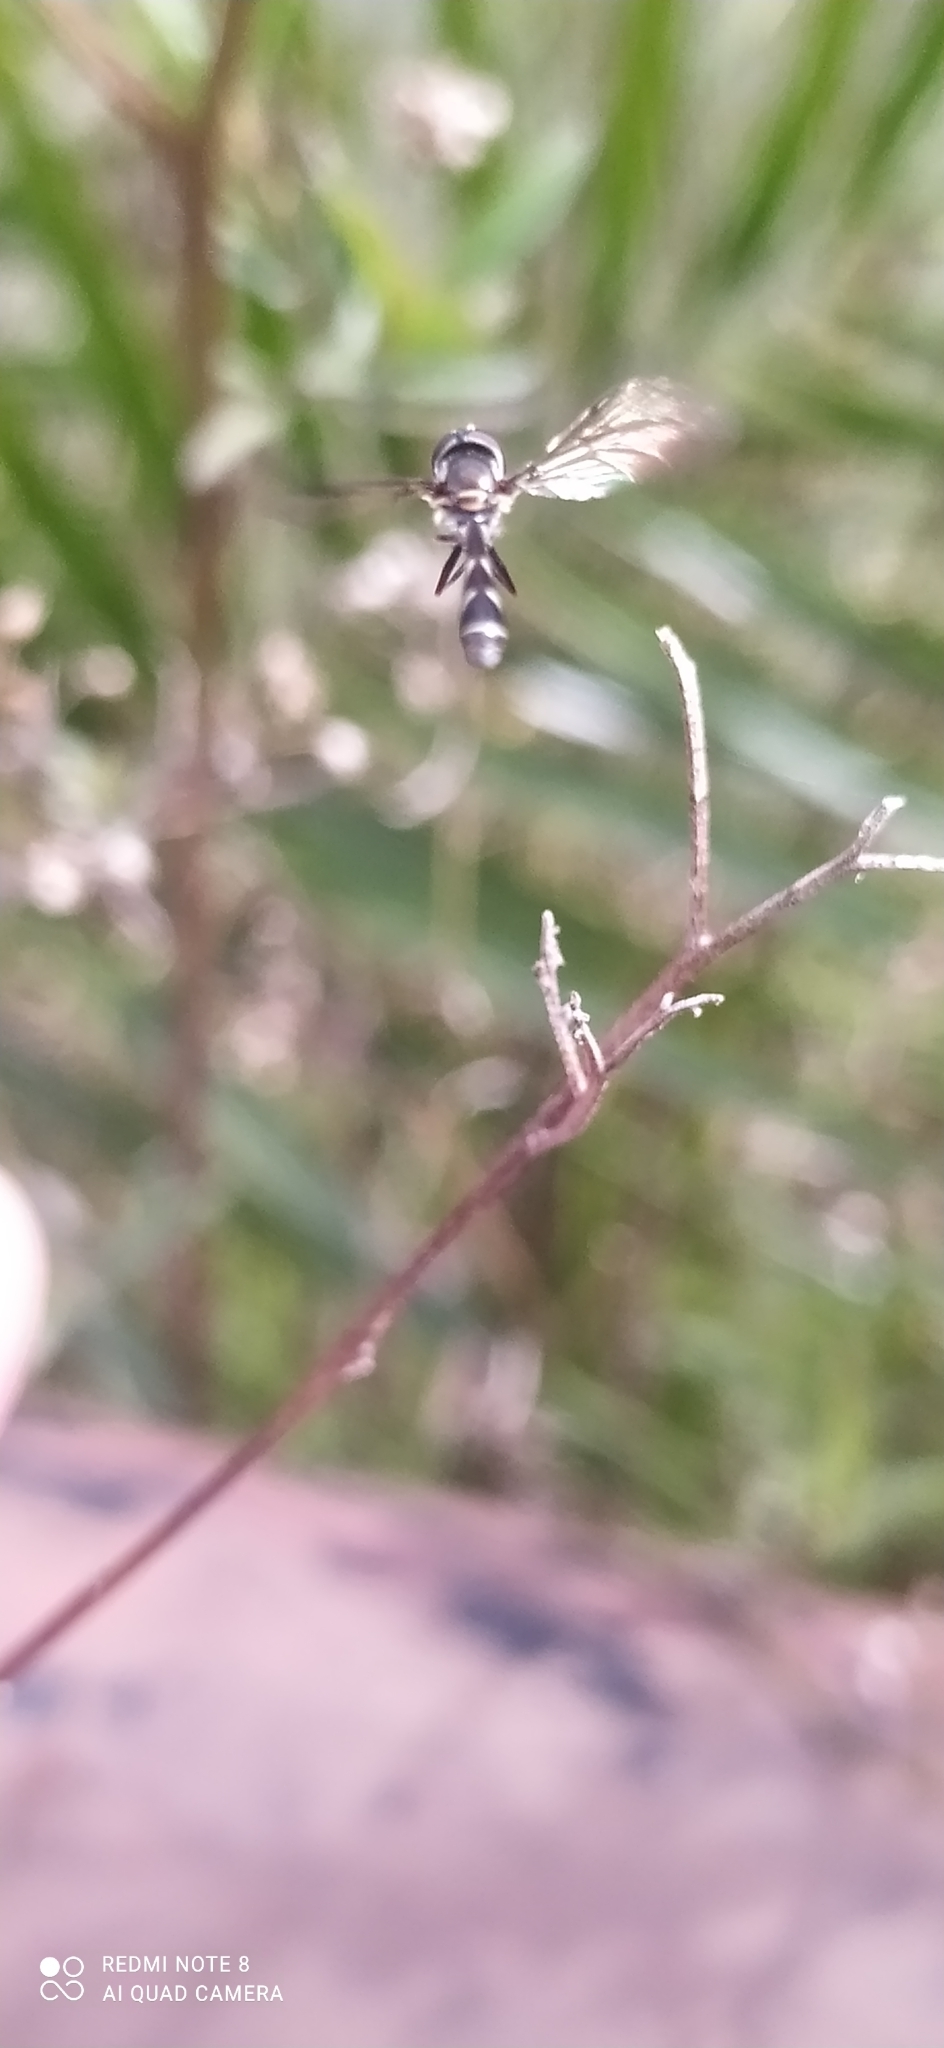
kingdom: Animalia
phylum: Arthropoda
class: Insecta
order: Diptera
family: Syrphidae
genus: Dioprosopa
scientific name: Dioprosopa clavatus
